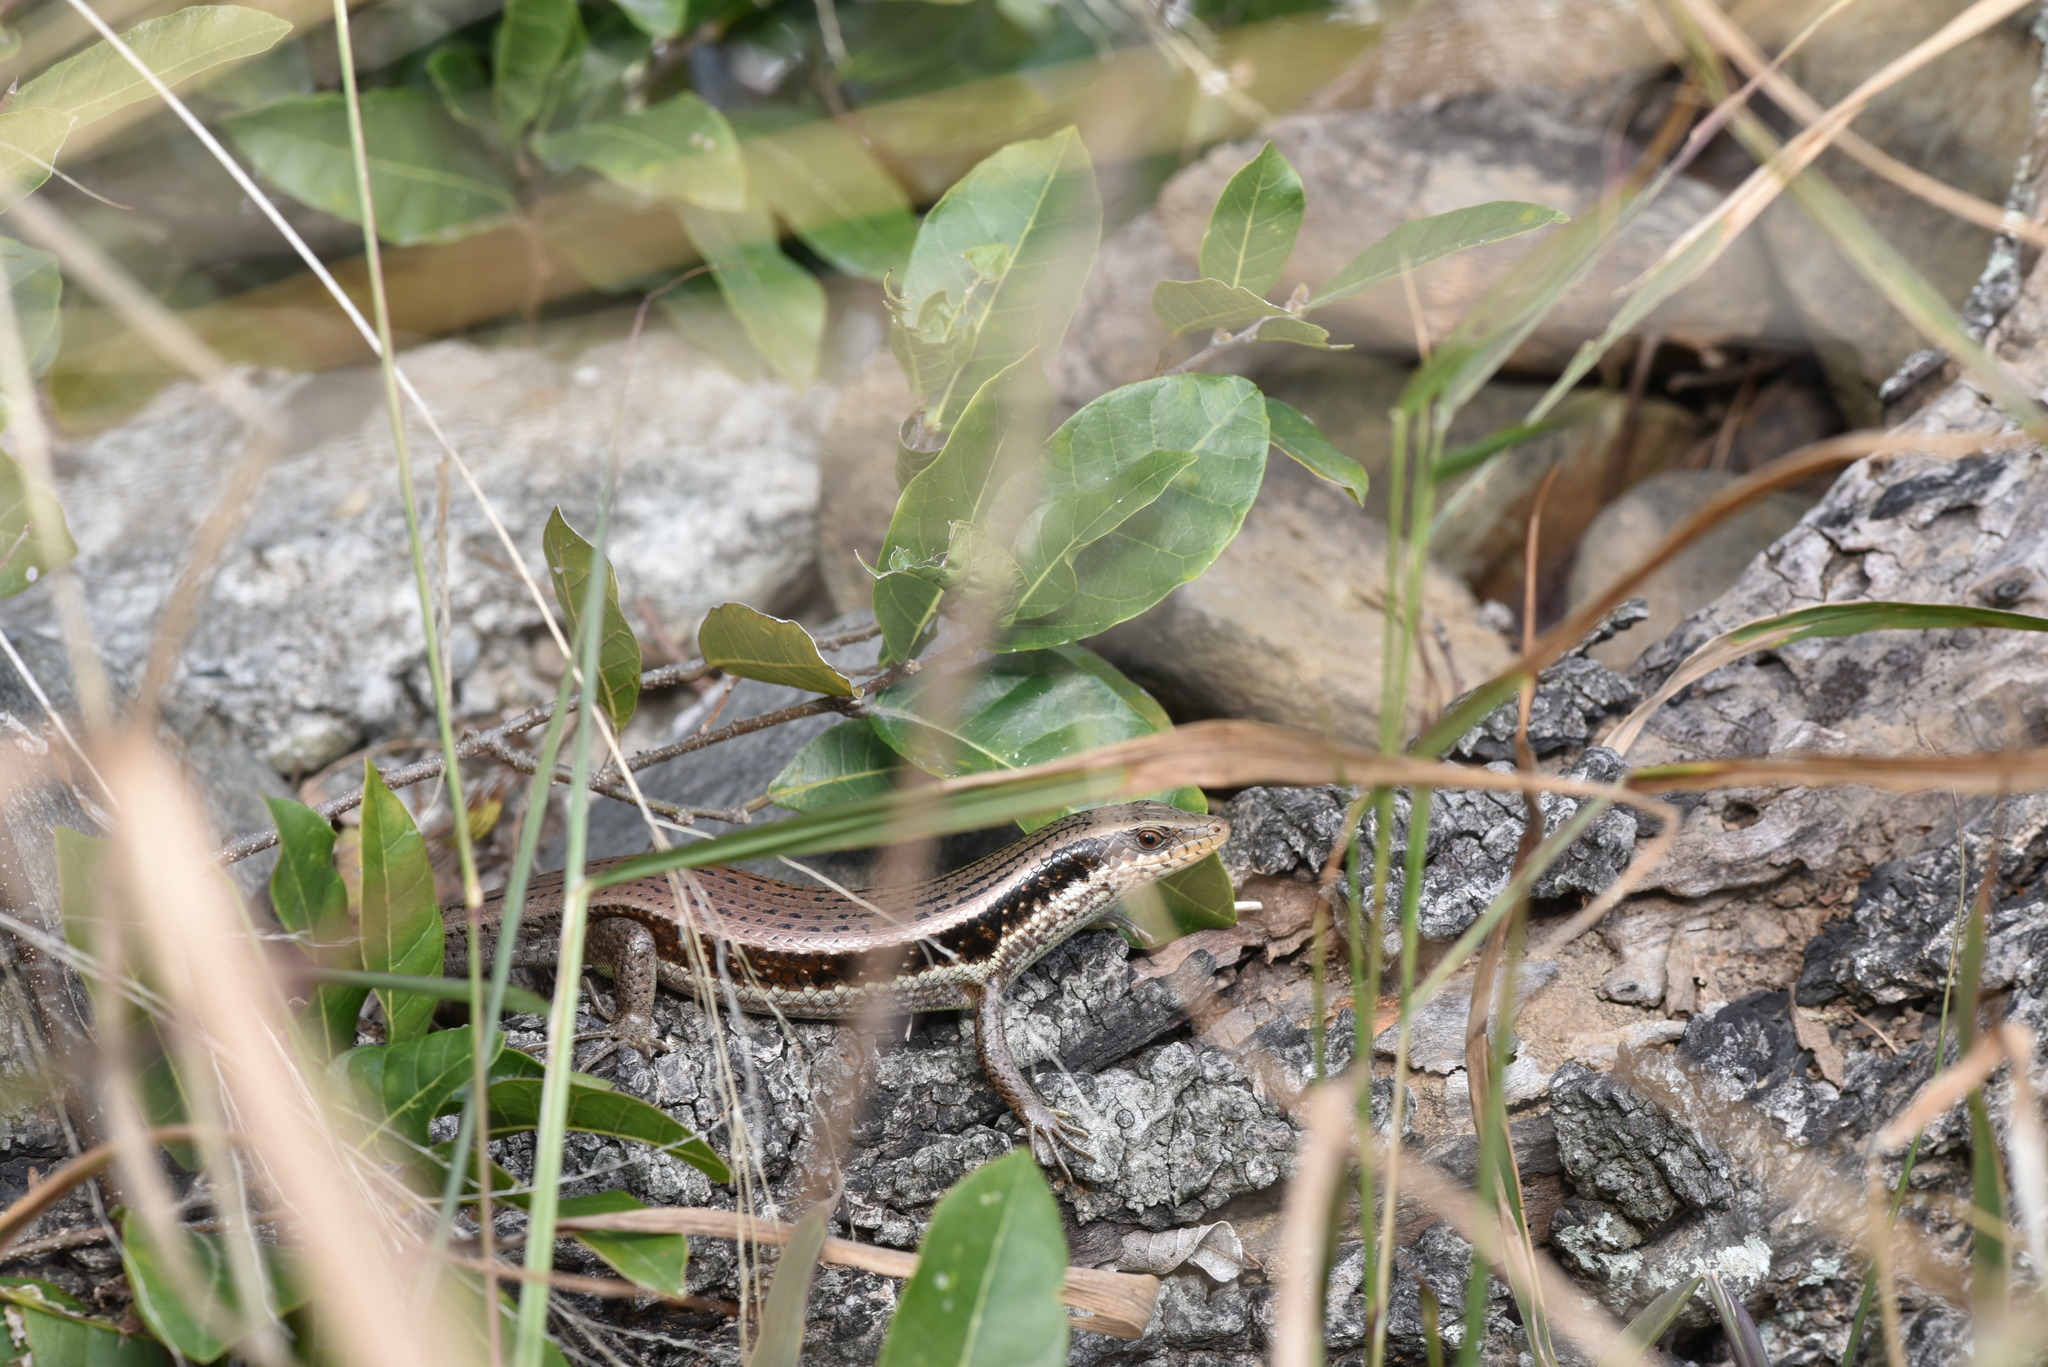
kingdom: Animalia
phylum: Chordata
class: Squamata
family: Scincidae
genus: Eutropis
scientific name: Eutropis longicaudata
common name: Long-tailed sun skink
